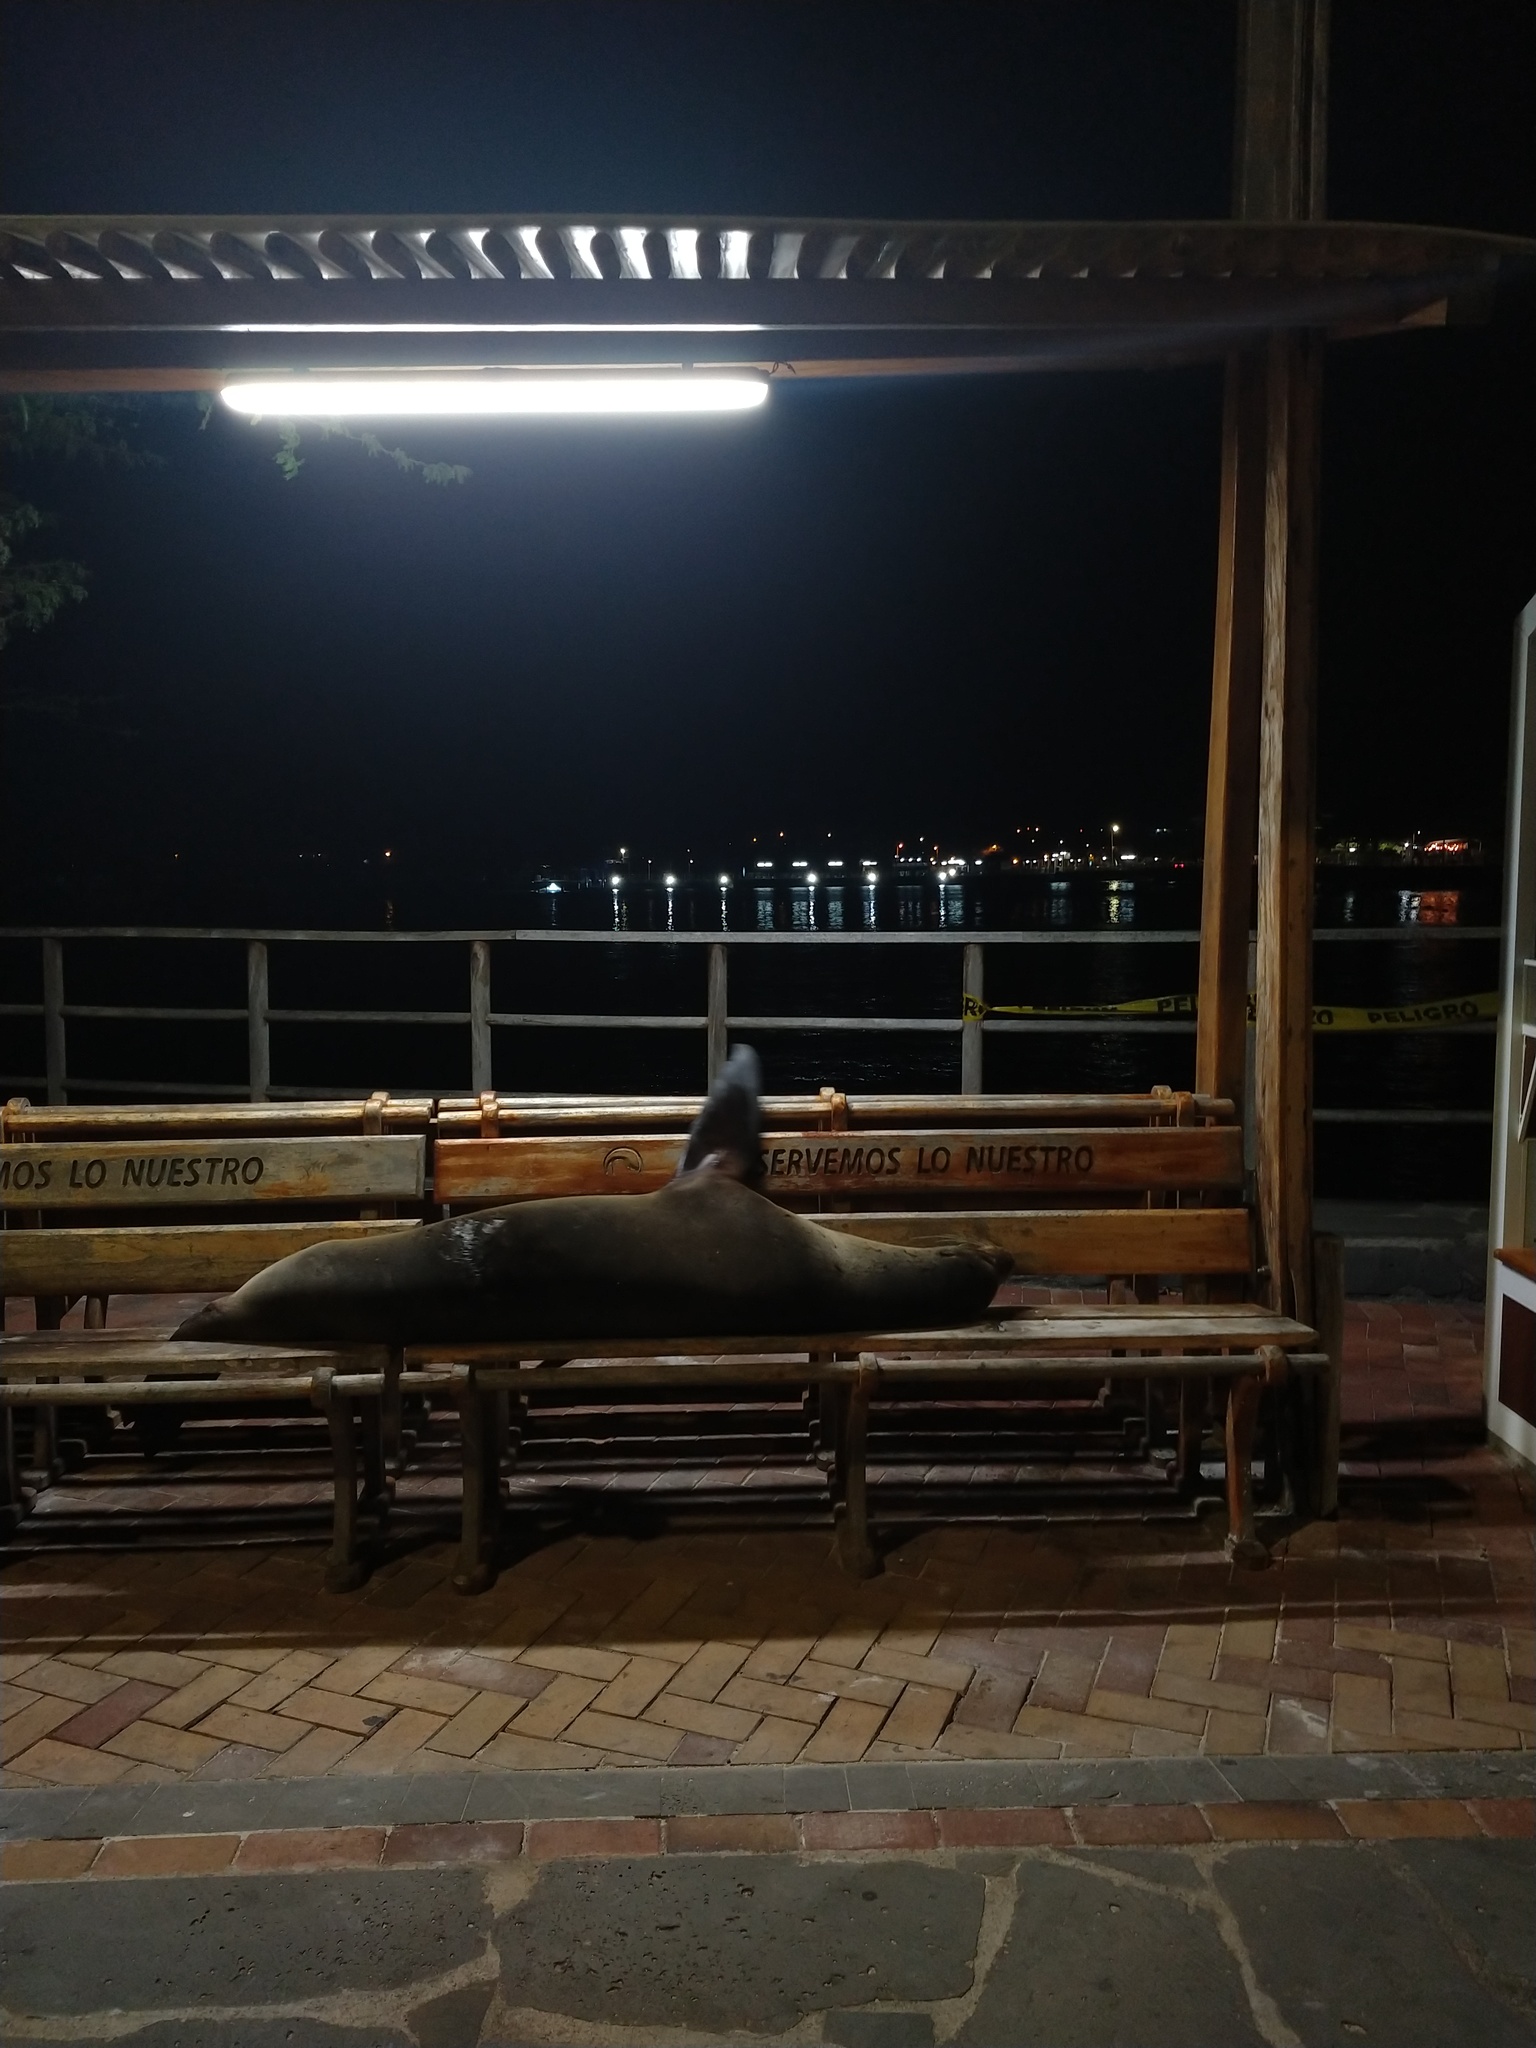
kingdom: Animalia
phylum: Chordata
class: Mammalia
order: Carnivora
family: Otariidae
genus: Zalophus
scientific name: Zalophus wollebaeki
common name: Galapagos sea lion
